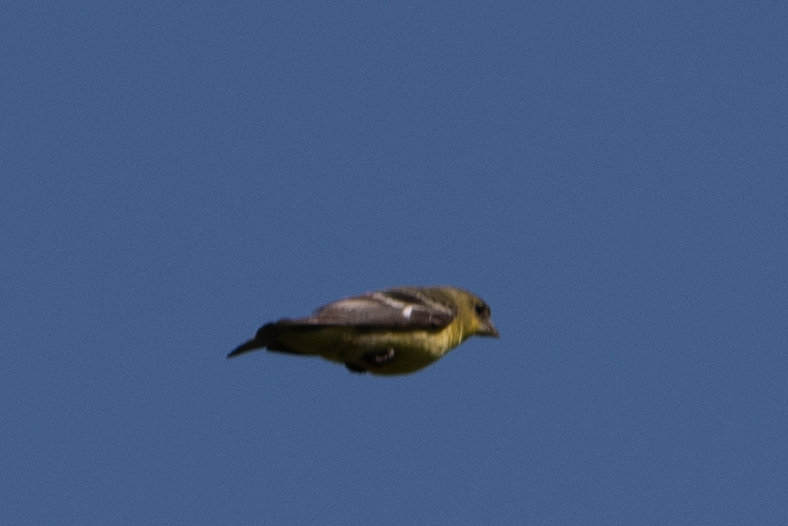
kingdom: Animalia
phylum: Chordata
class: Aves
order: Passeriformes
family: Fringillidae
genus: Spinus
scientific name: Spinus psaltria
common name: Lesser goldfinch
